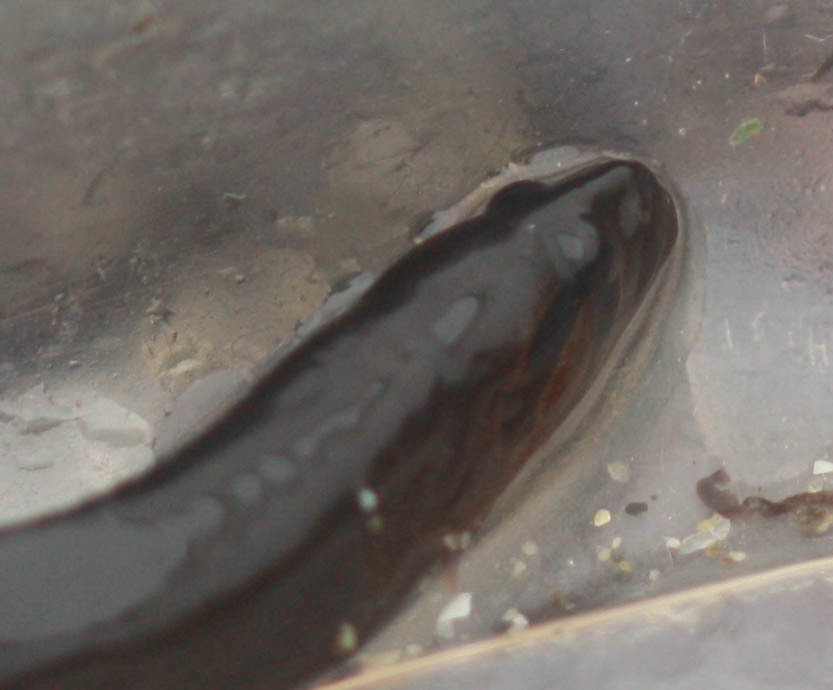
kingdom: Animalia
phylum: Chordata
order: Perciformes
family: Stichaeidae
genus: Xiphister
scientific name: Xiphister atropurpureus
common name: Black prickleback
